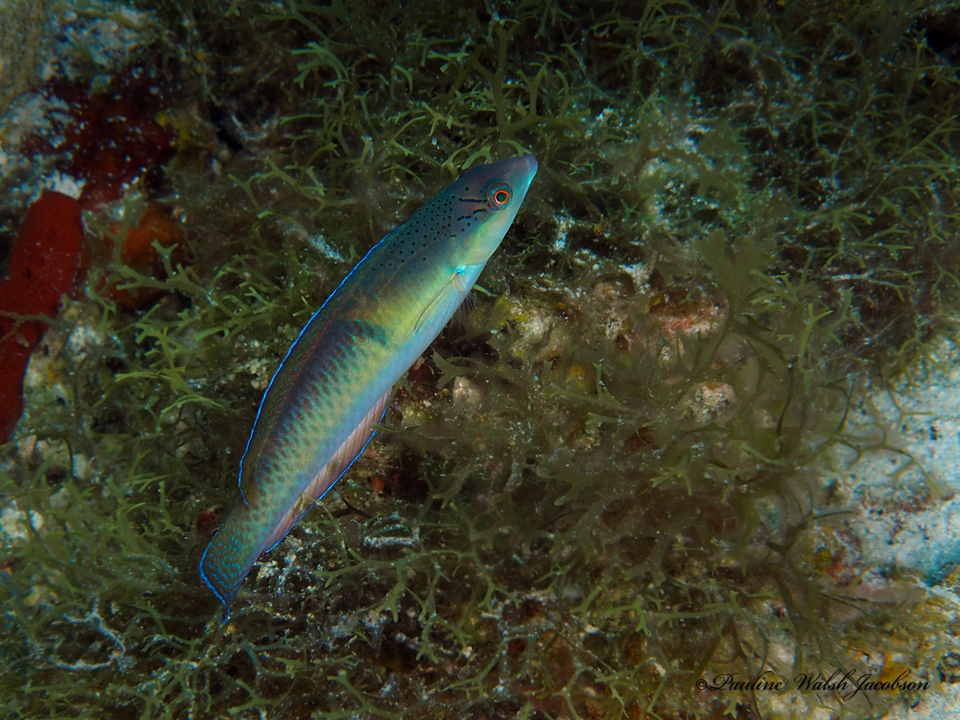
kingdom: Animalia
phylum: Chordata
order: Perciformes
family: Labridae
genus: Halichoeres
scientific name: Halichoeres garnoti
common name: Yellowhead wrasse
